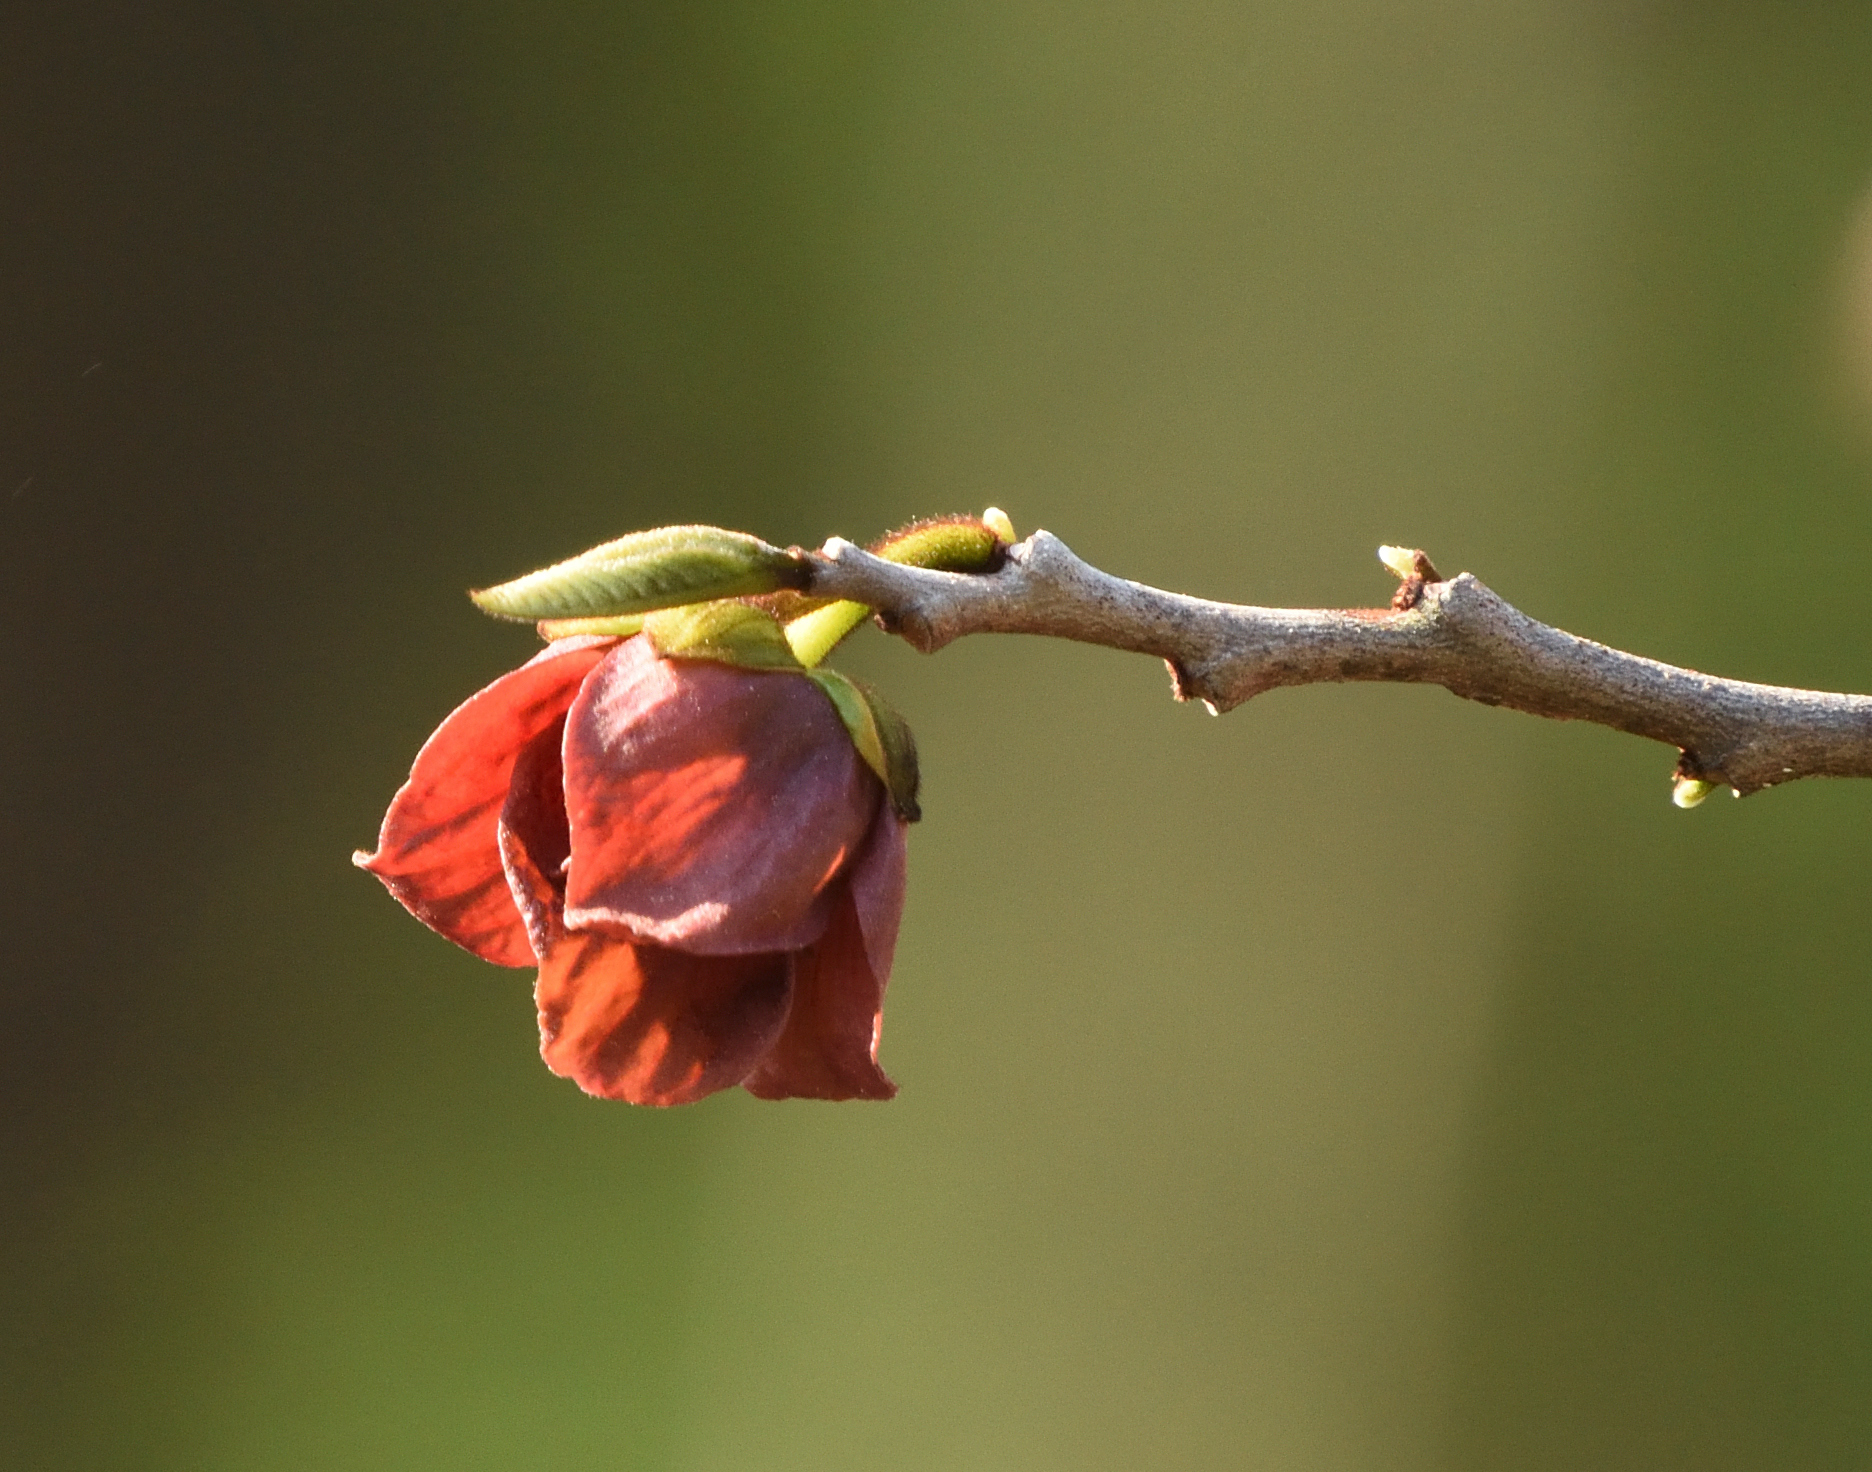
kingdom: Plantae
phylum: Tracheophyta
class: Magnoliopsida
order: Magnoliales
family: Annonaceae
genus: Asimina
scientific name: Asimina triloba
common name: Dog-banana
